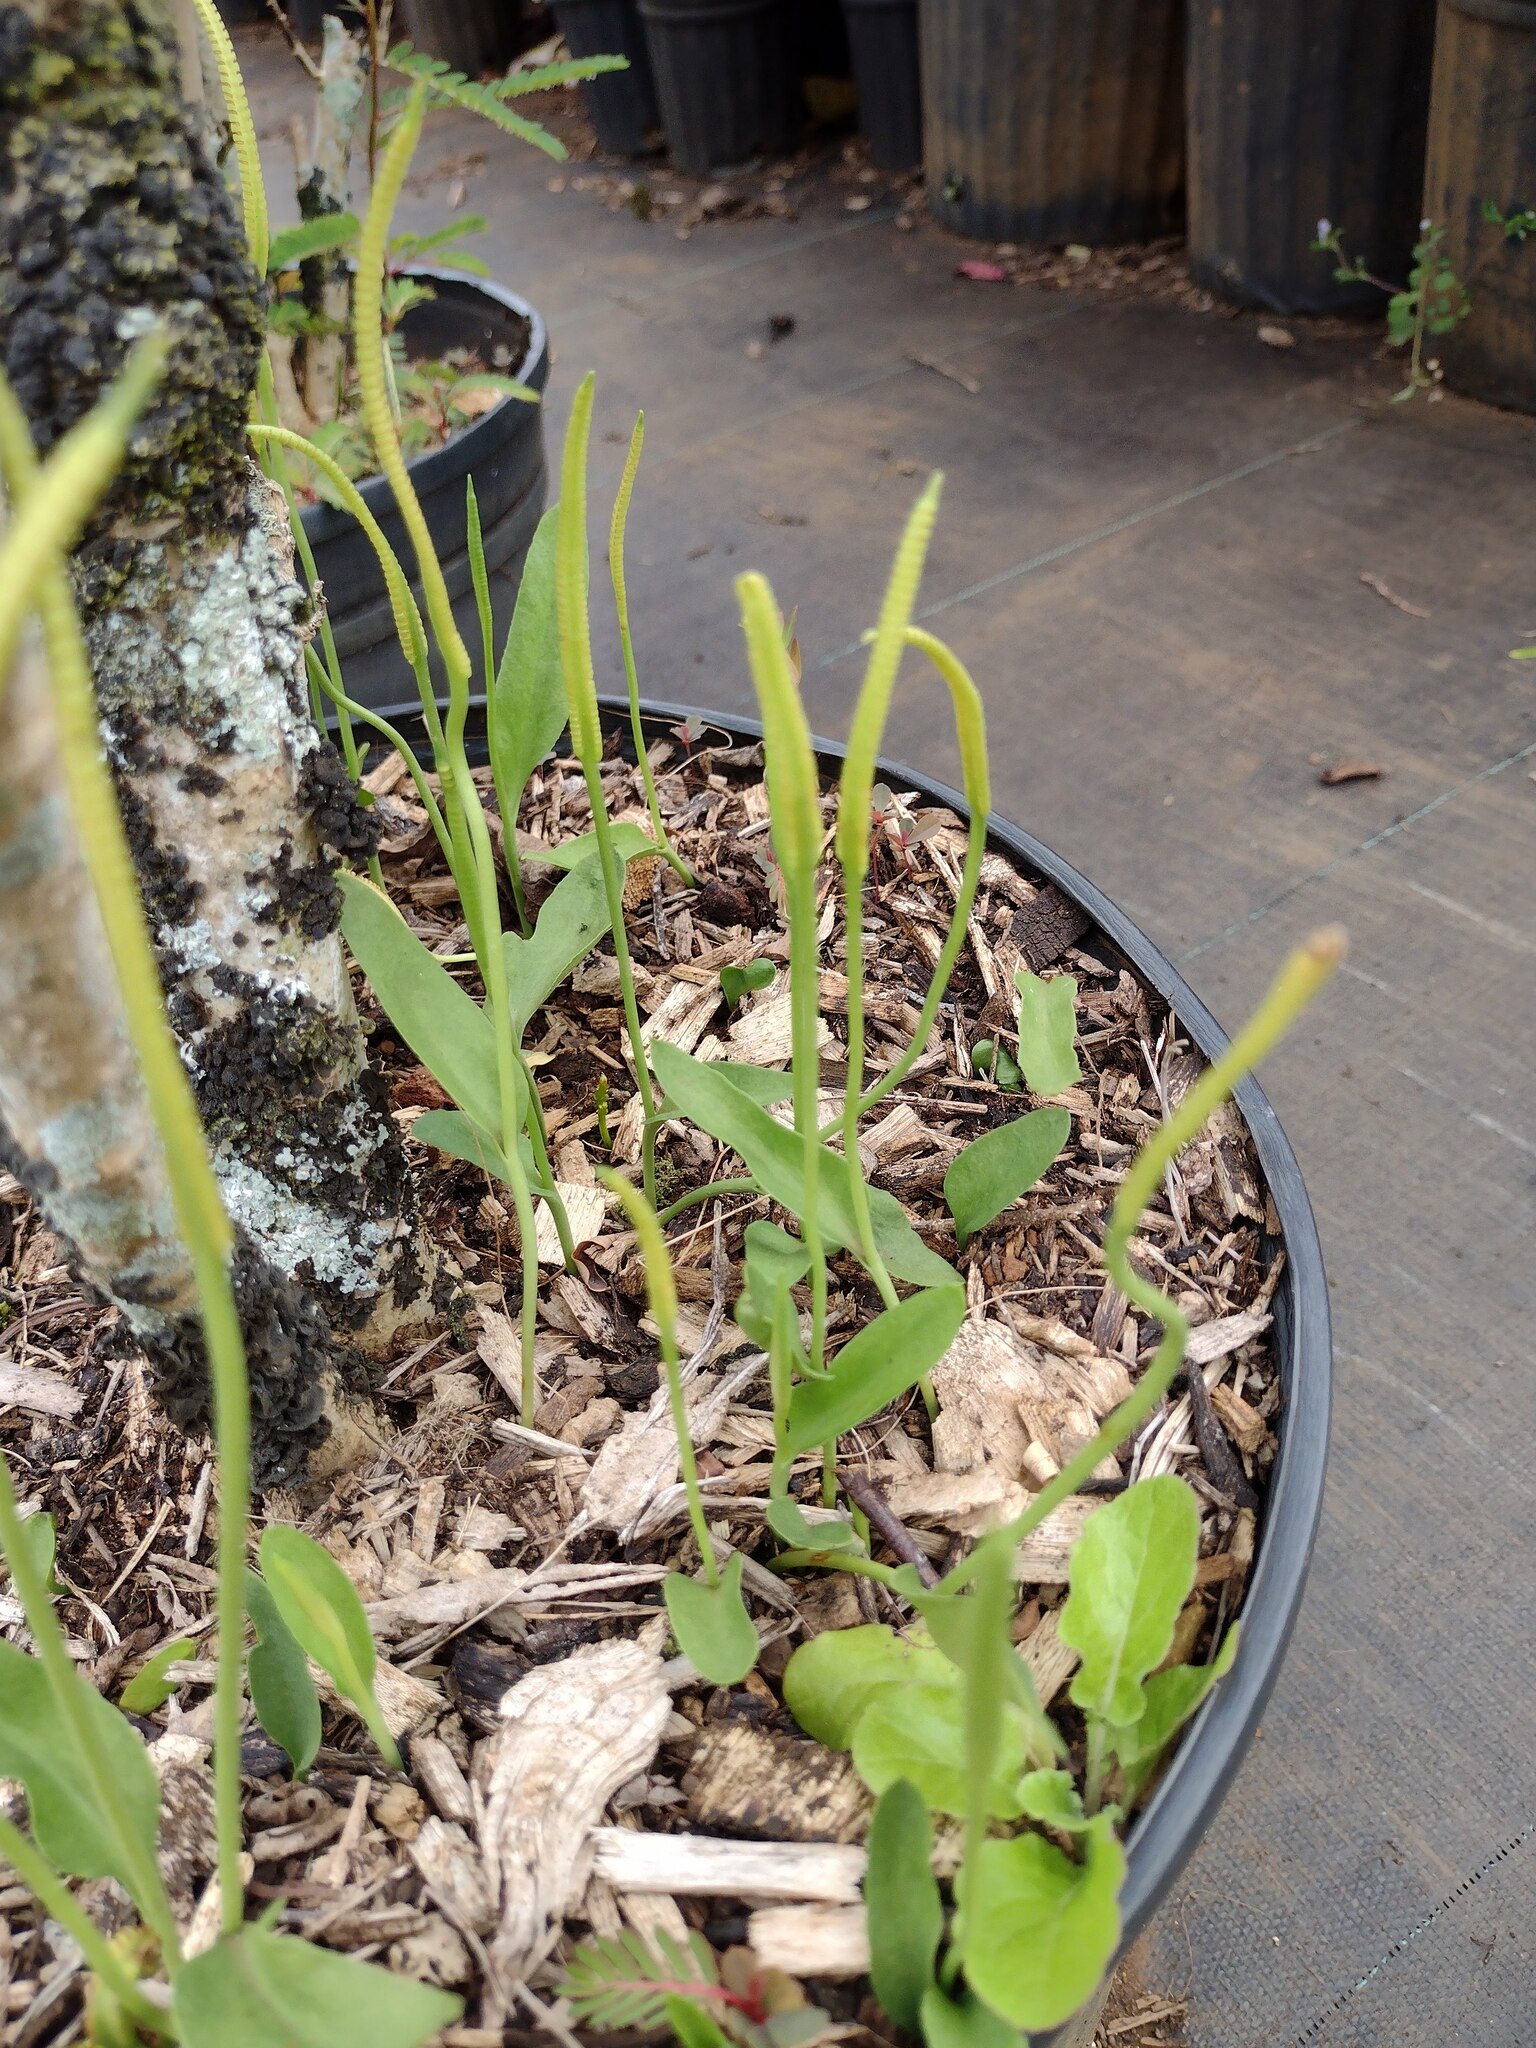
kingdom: Plantae
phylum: Tracheophyta
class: Polypodiopsida
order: Ophioglossales
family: Ophioglossaceae
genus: Ophioglossum
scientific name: Ophioglossum petiolatum
